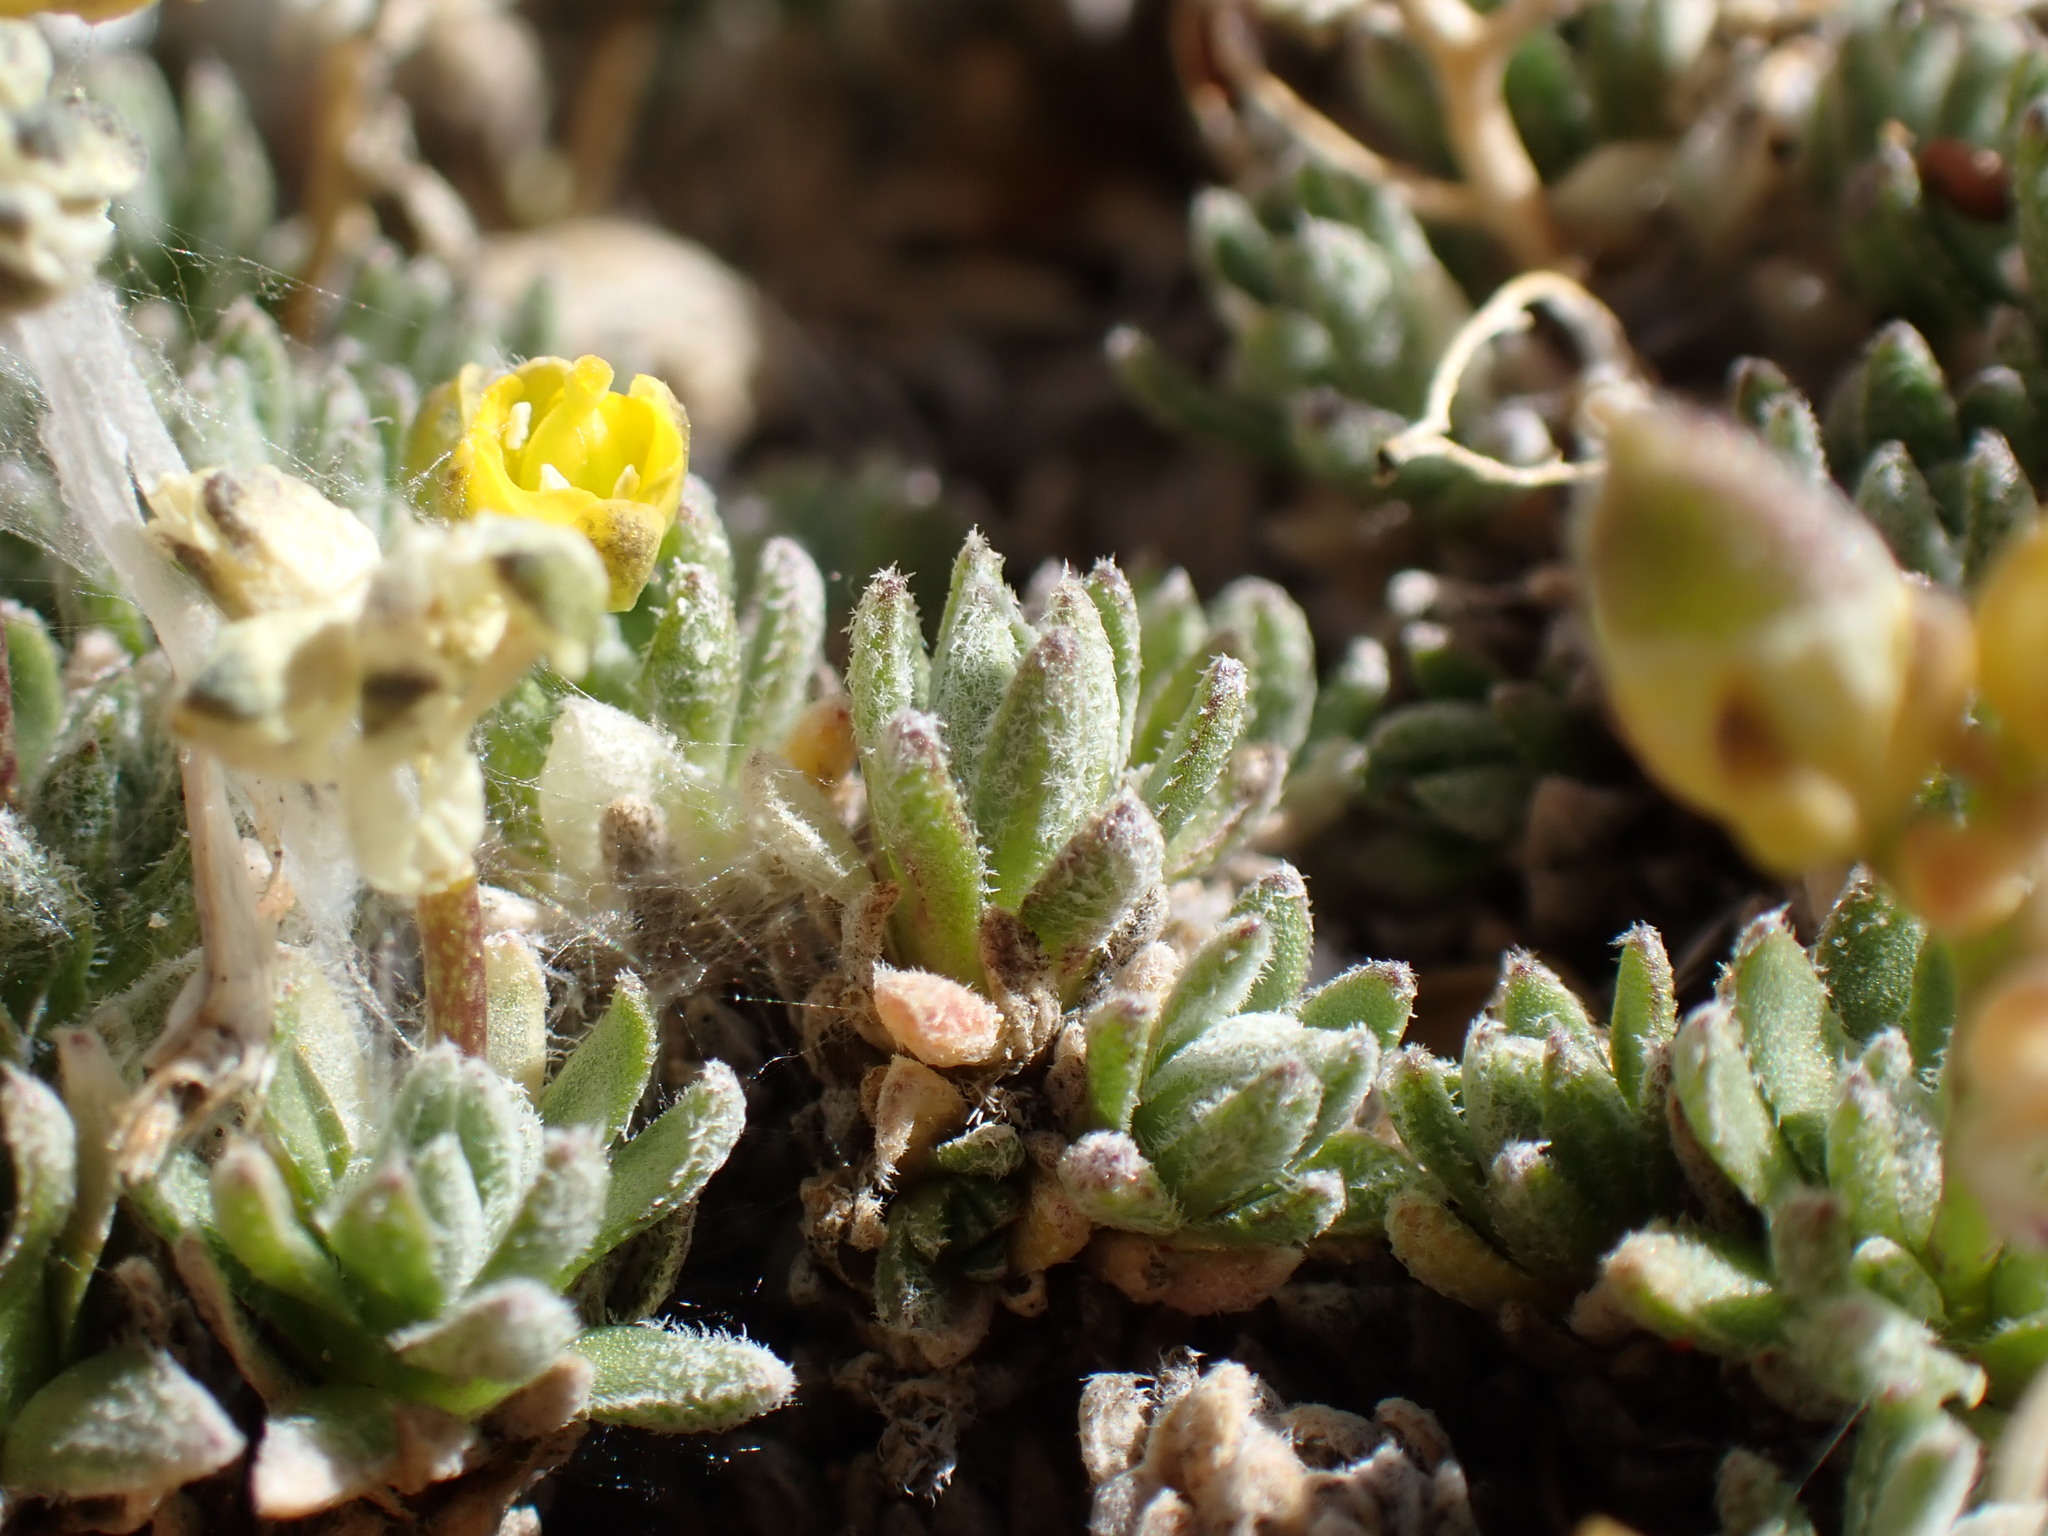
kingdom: Plantae
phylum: Tracheophyta
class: Magnoliopsida
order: Brassicales
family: Brassicaceae
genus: Draba
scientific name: Draba oligosperma
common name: Few-seed draba
